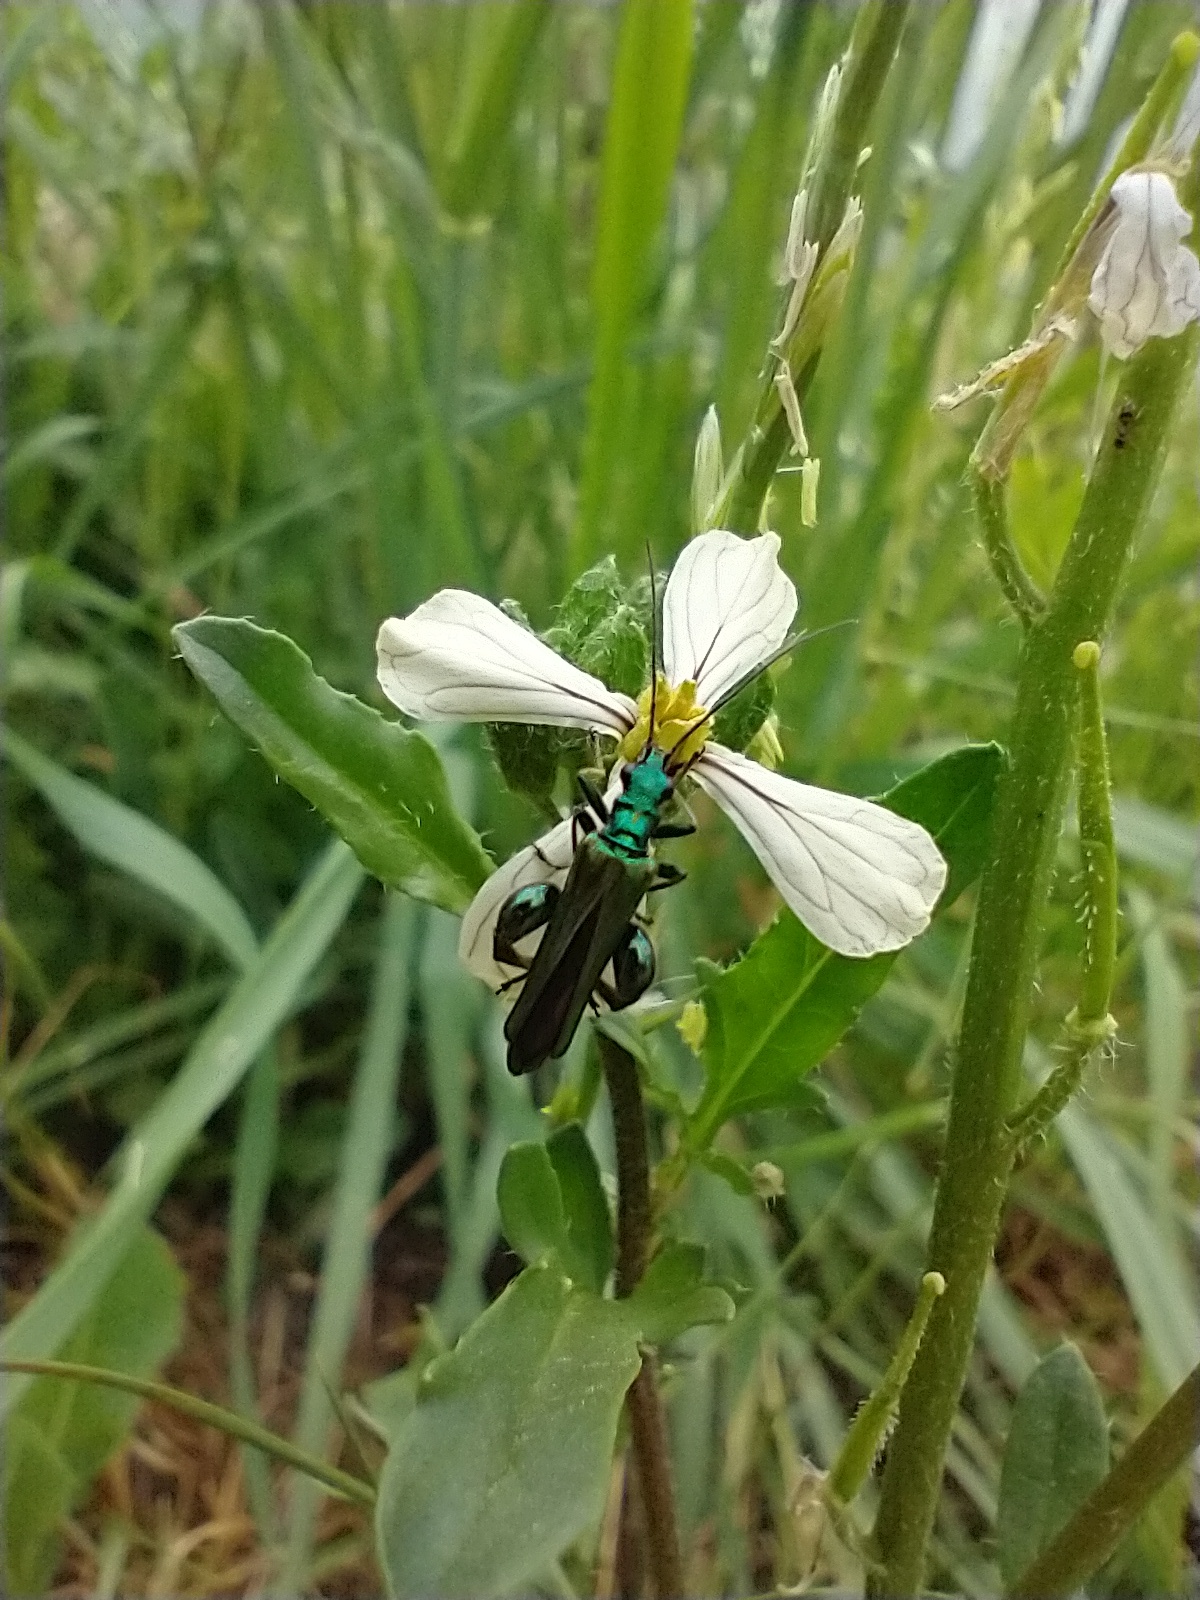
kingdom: Animalia
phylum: Arthropoda
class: Insecta
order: Coleoptera
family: Oedemeridae
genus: Oedemera
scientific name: Oedemera nobilis
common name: Swollen-thighed beetle
